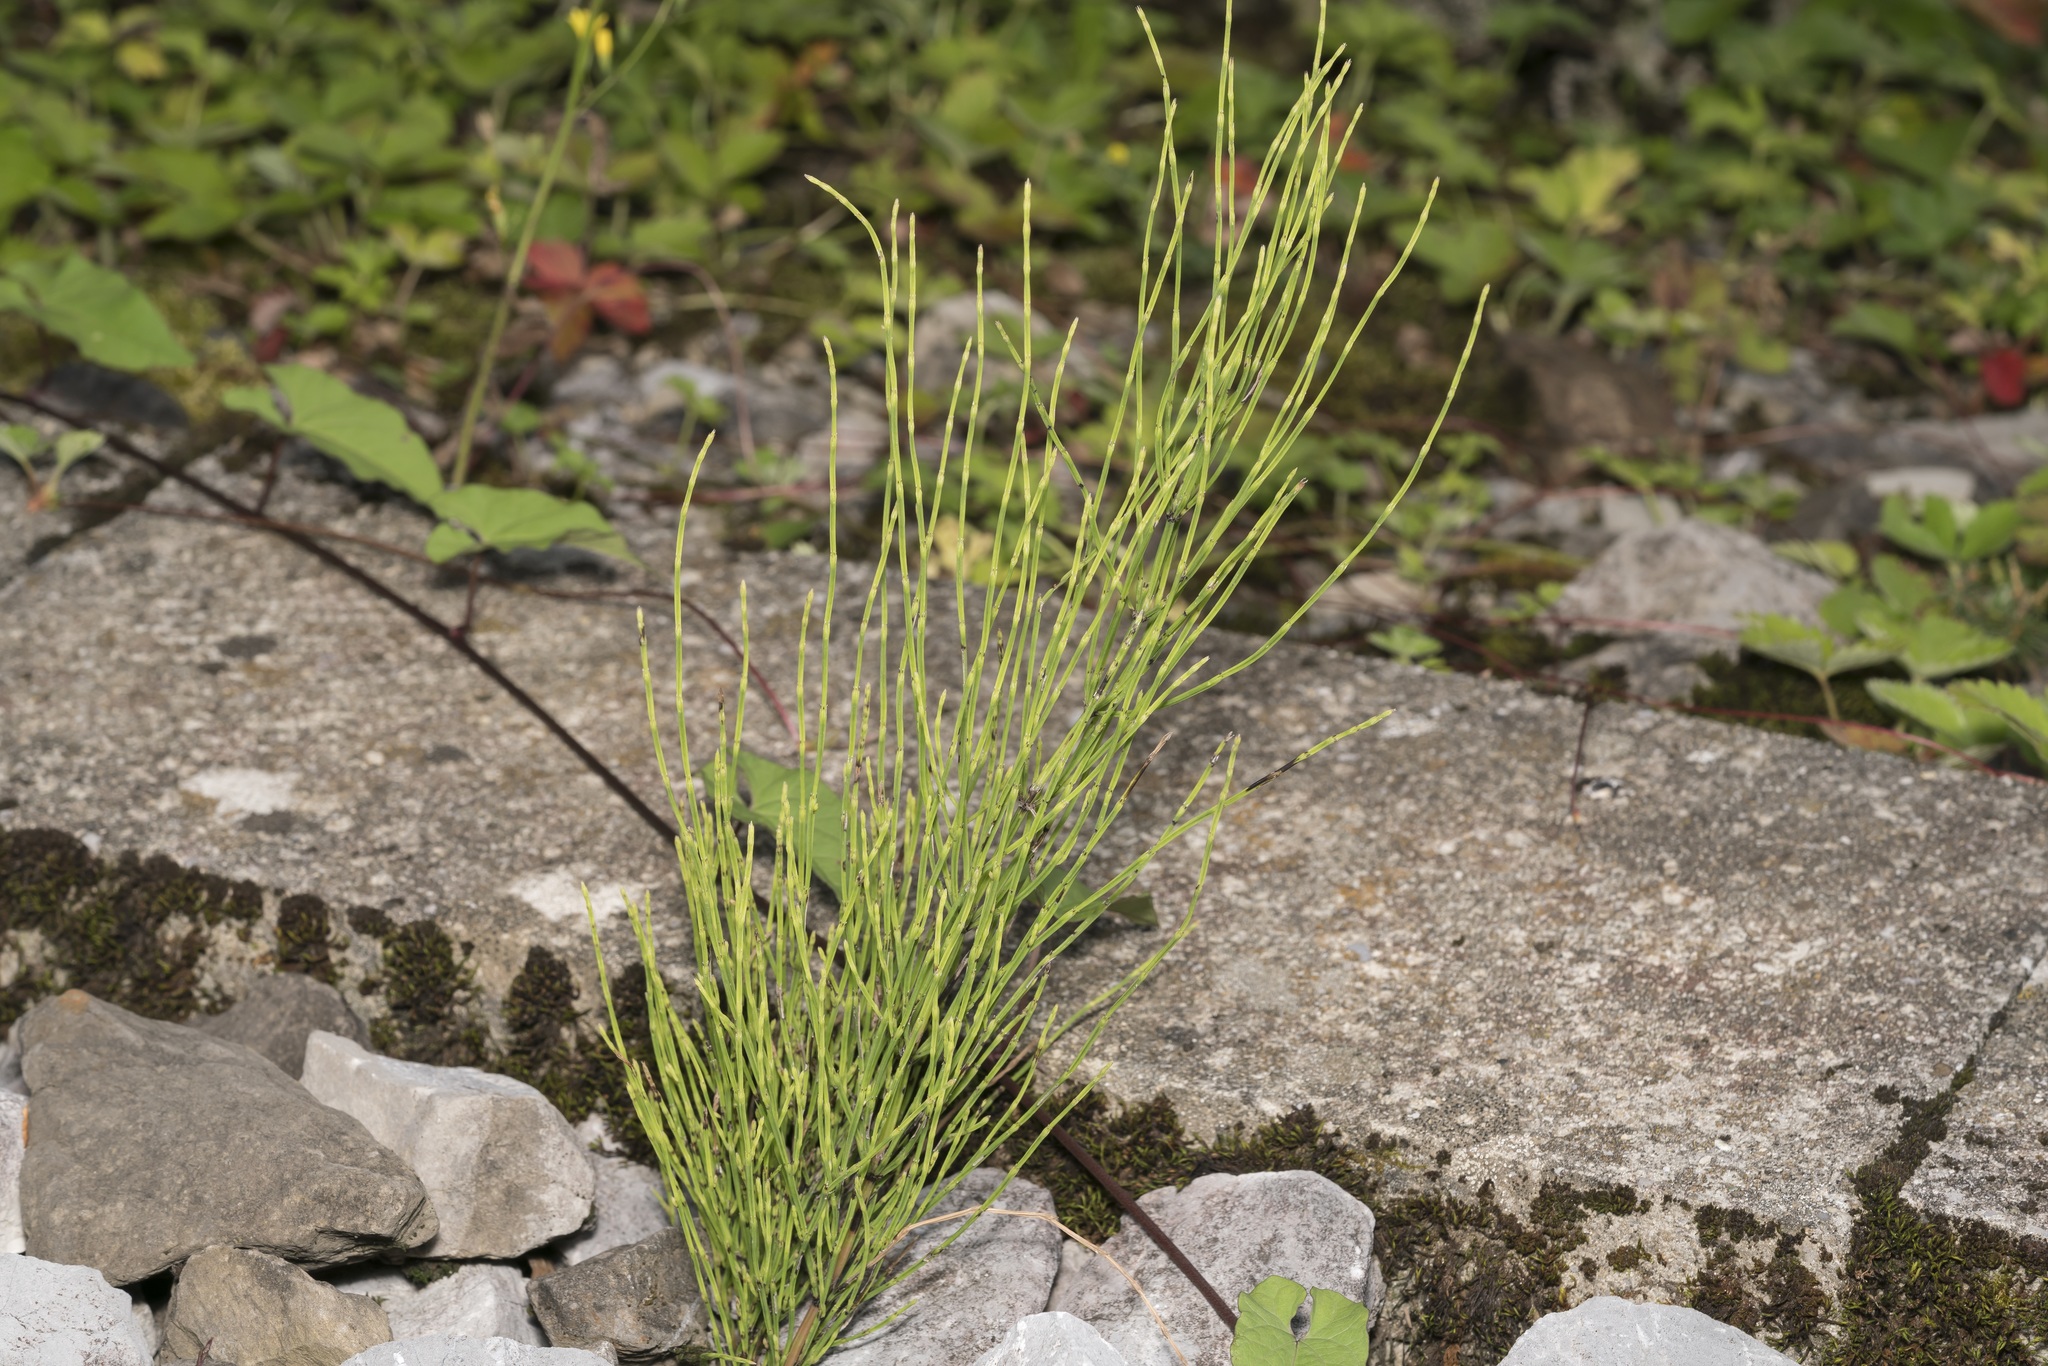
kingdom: Plantae
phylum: Tracheophyta
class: Polypodiopsida
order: Equisetales
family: Equisetaceae
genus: Equisetum
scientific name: Equisetum arvense
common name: Field horsetail
